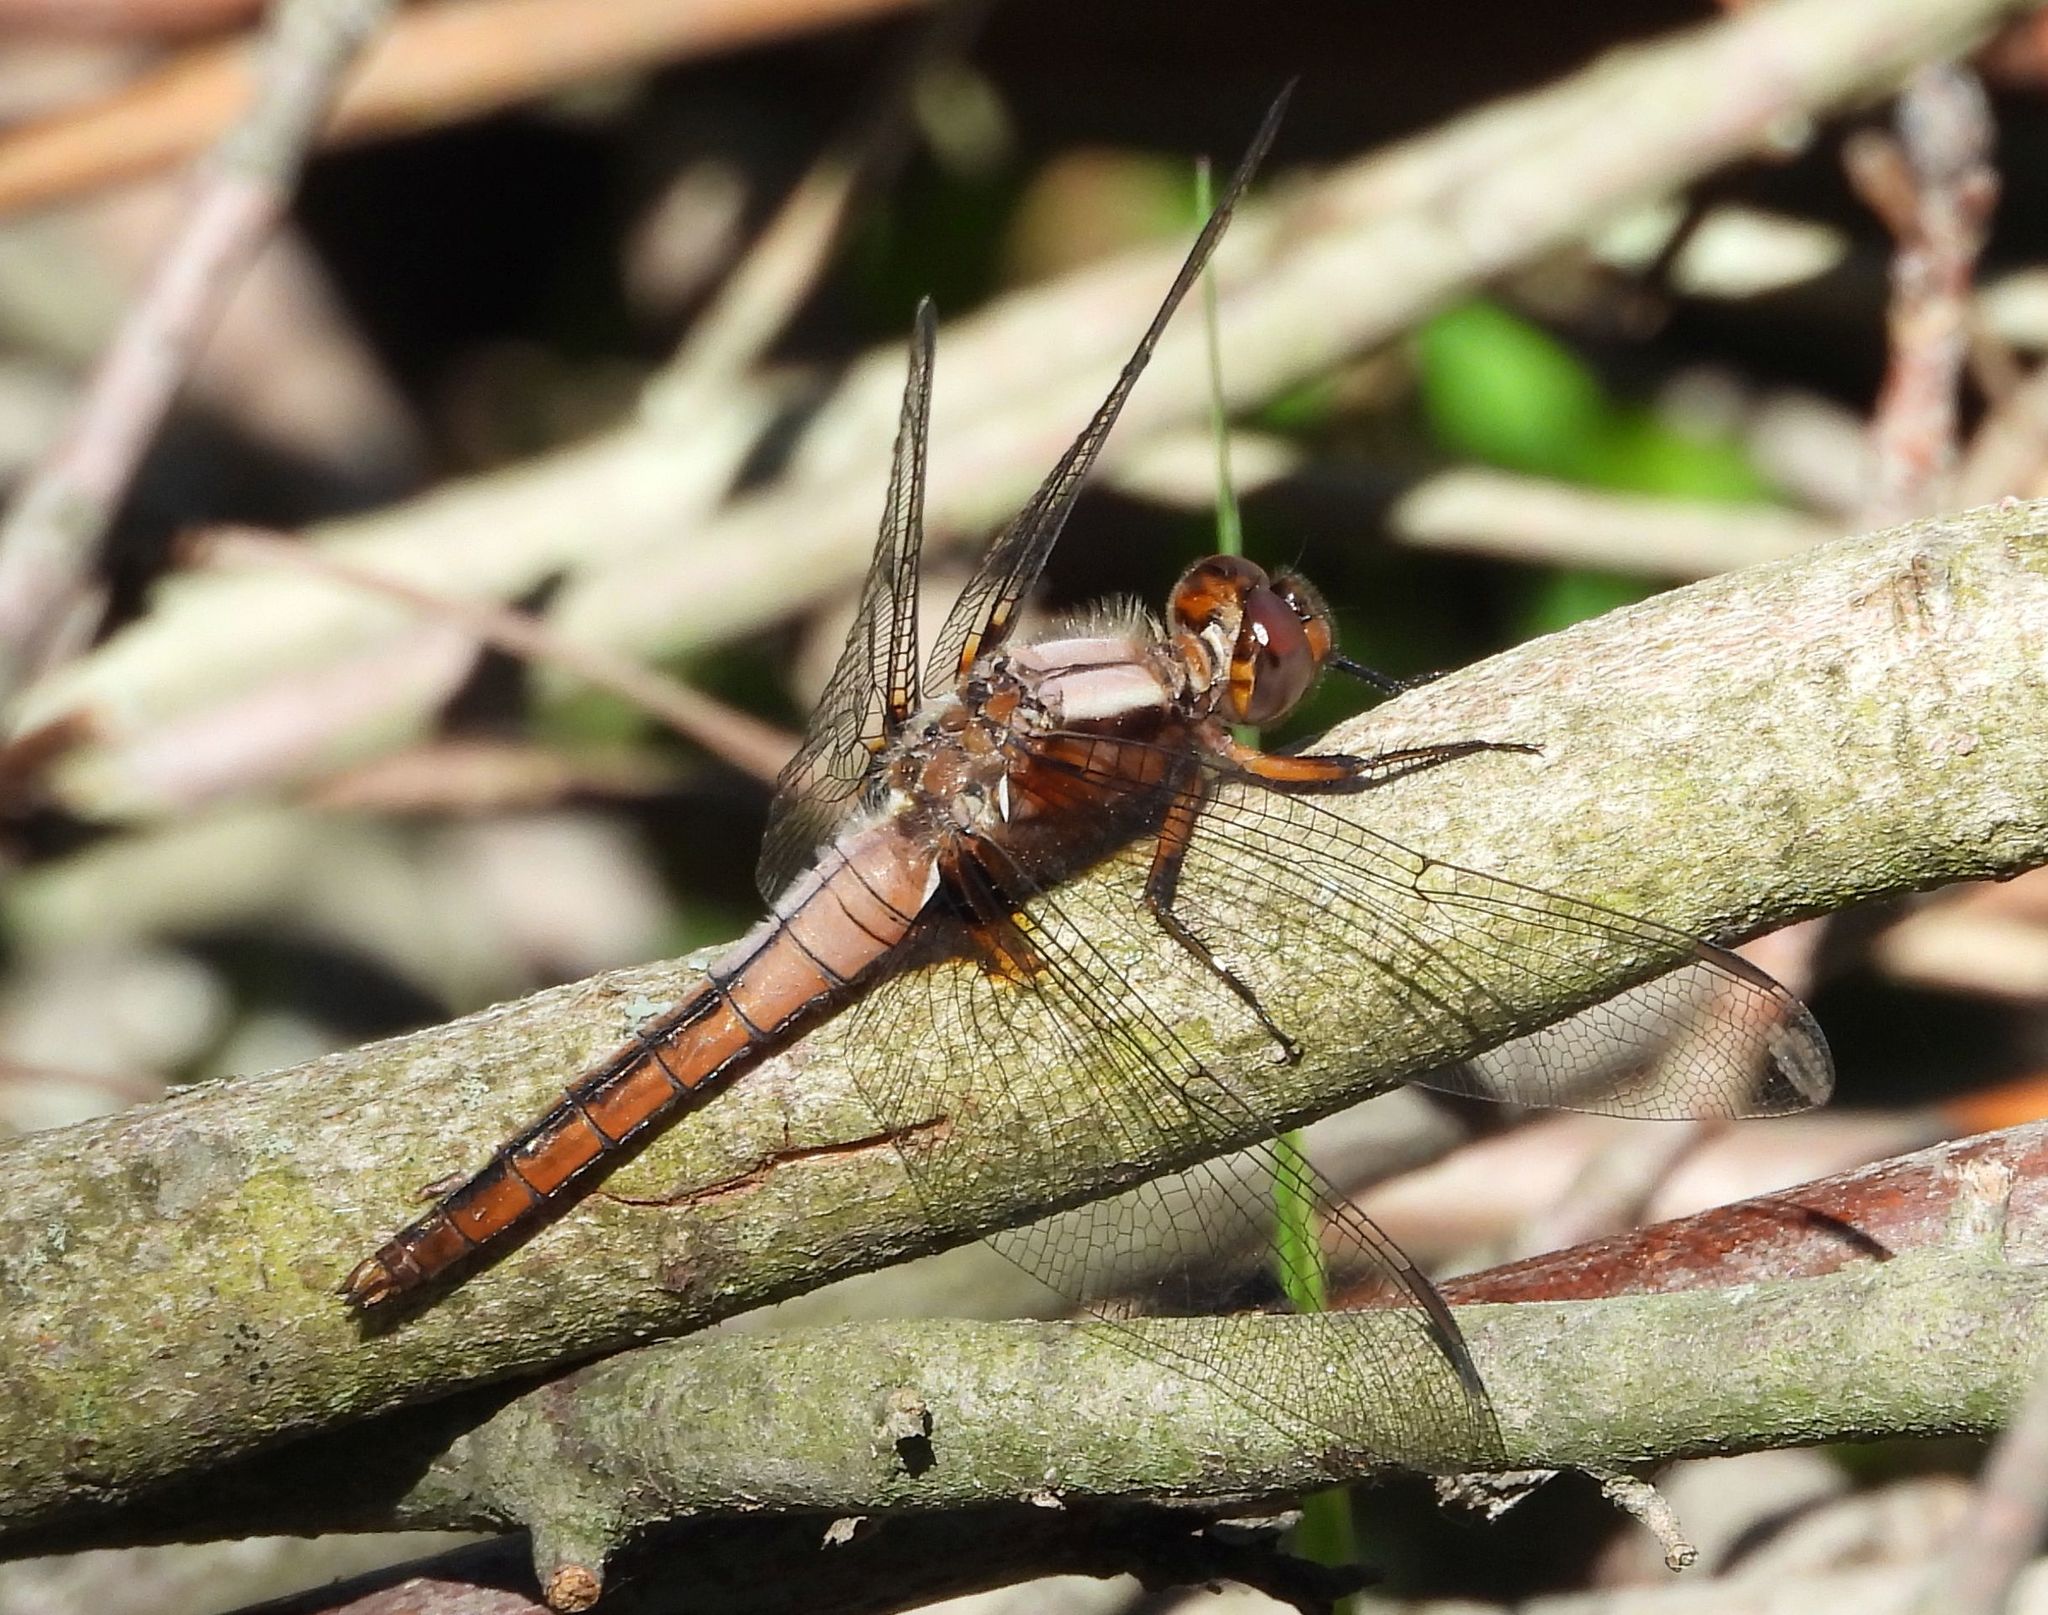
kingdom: Animalia
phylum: Arthropoda
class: Insecta
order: Odonata
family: Libellulidae
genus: Ladona
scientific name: Ladona julia
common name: Chalk-fronted corporal
